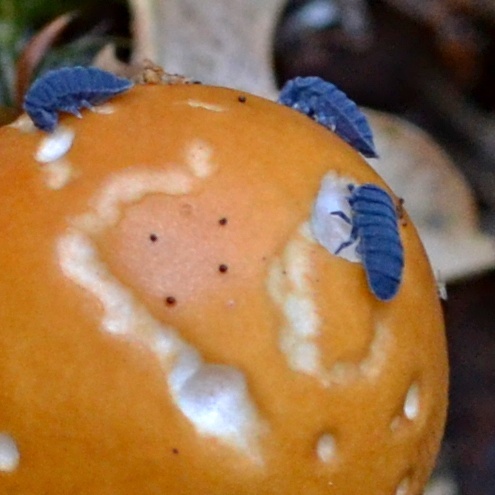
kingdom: Animalia
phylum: Arthropoda
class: Collembola
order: Poduromorpha
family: Onychiuridae
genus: Tetrodontophora
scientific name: Tetrodontophora bielanensis
